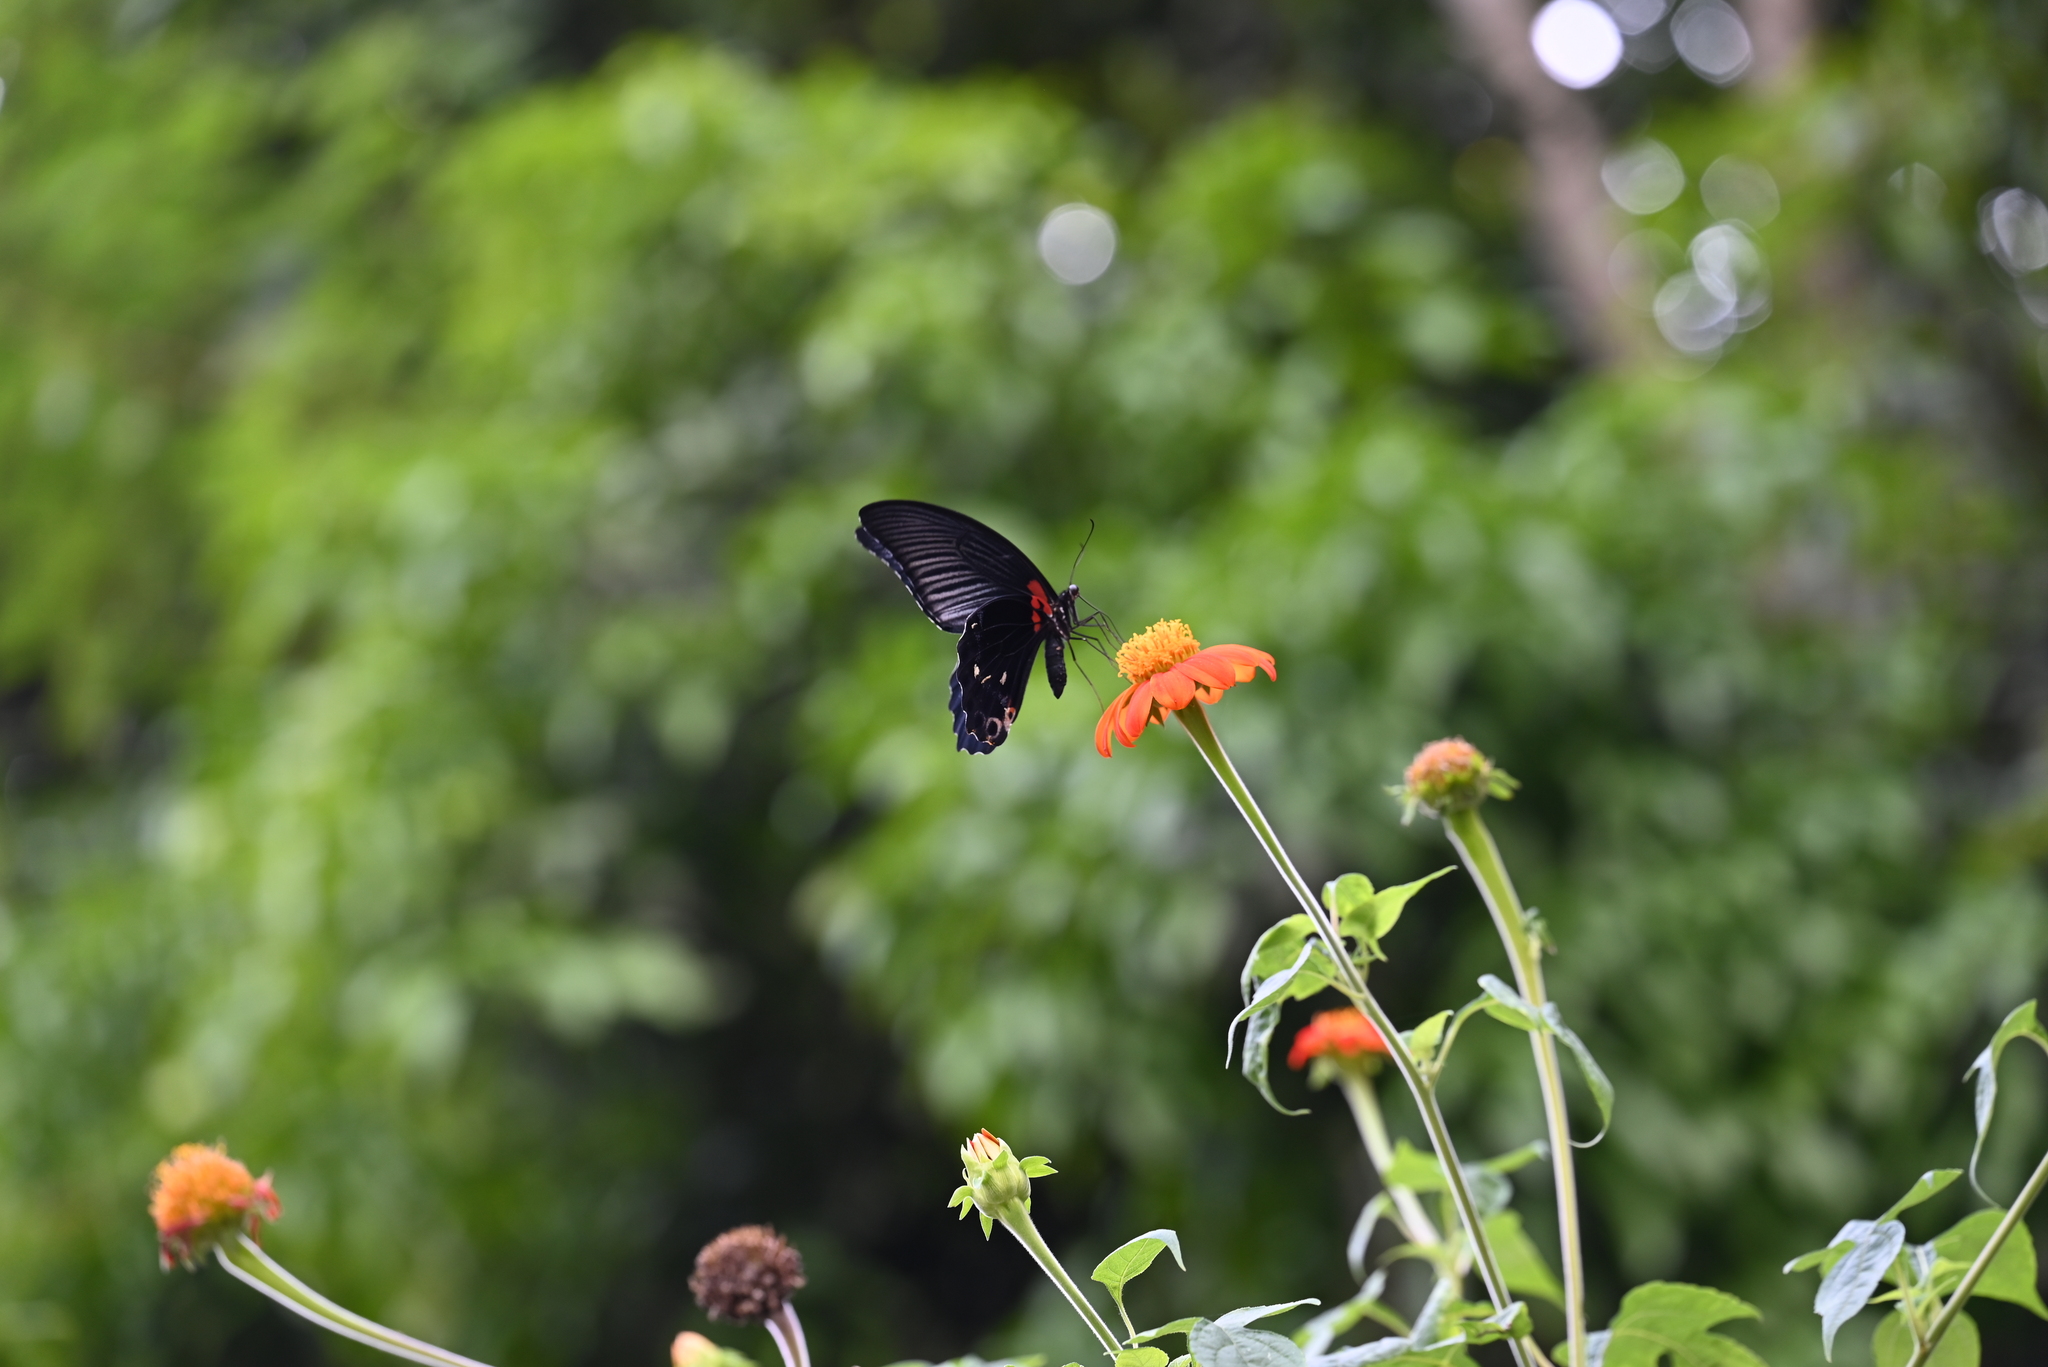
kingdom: Animalia
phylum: Arthropoda
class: Insecta
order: Lepidoptera
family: Papilionidae
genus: Papilio
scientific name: Papilio memnon
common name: Great mormon
